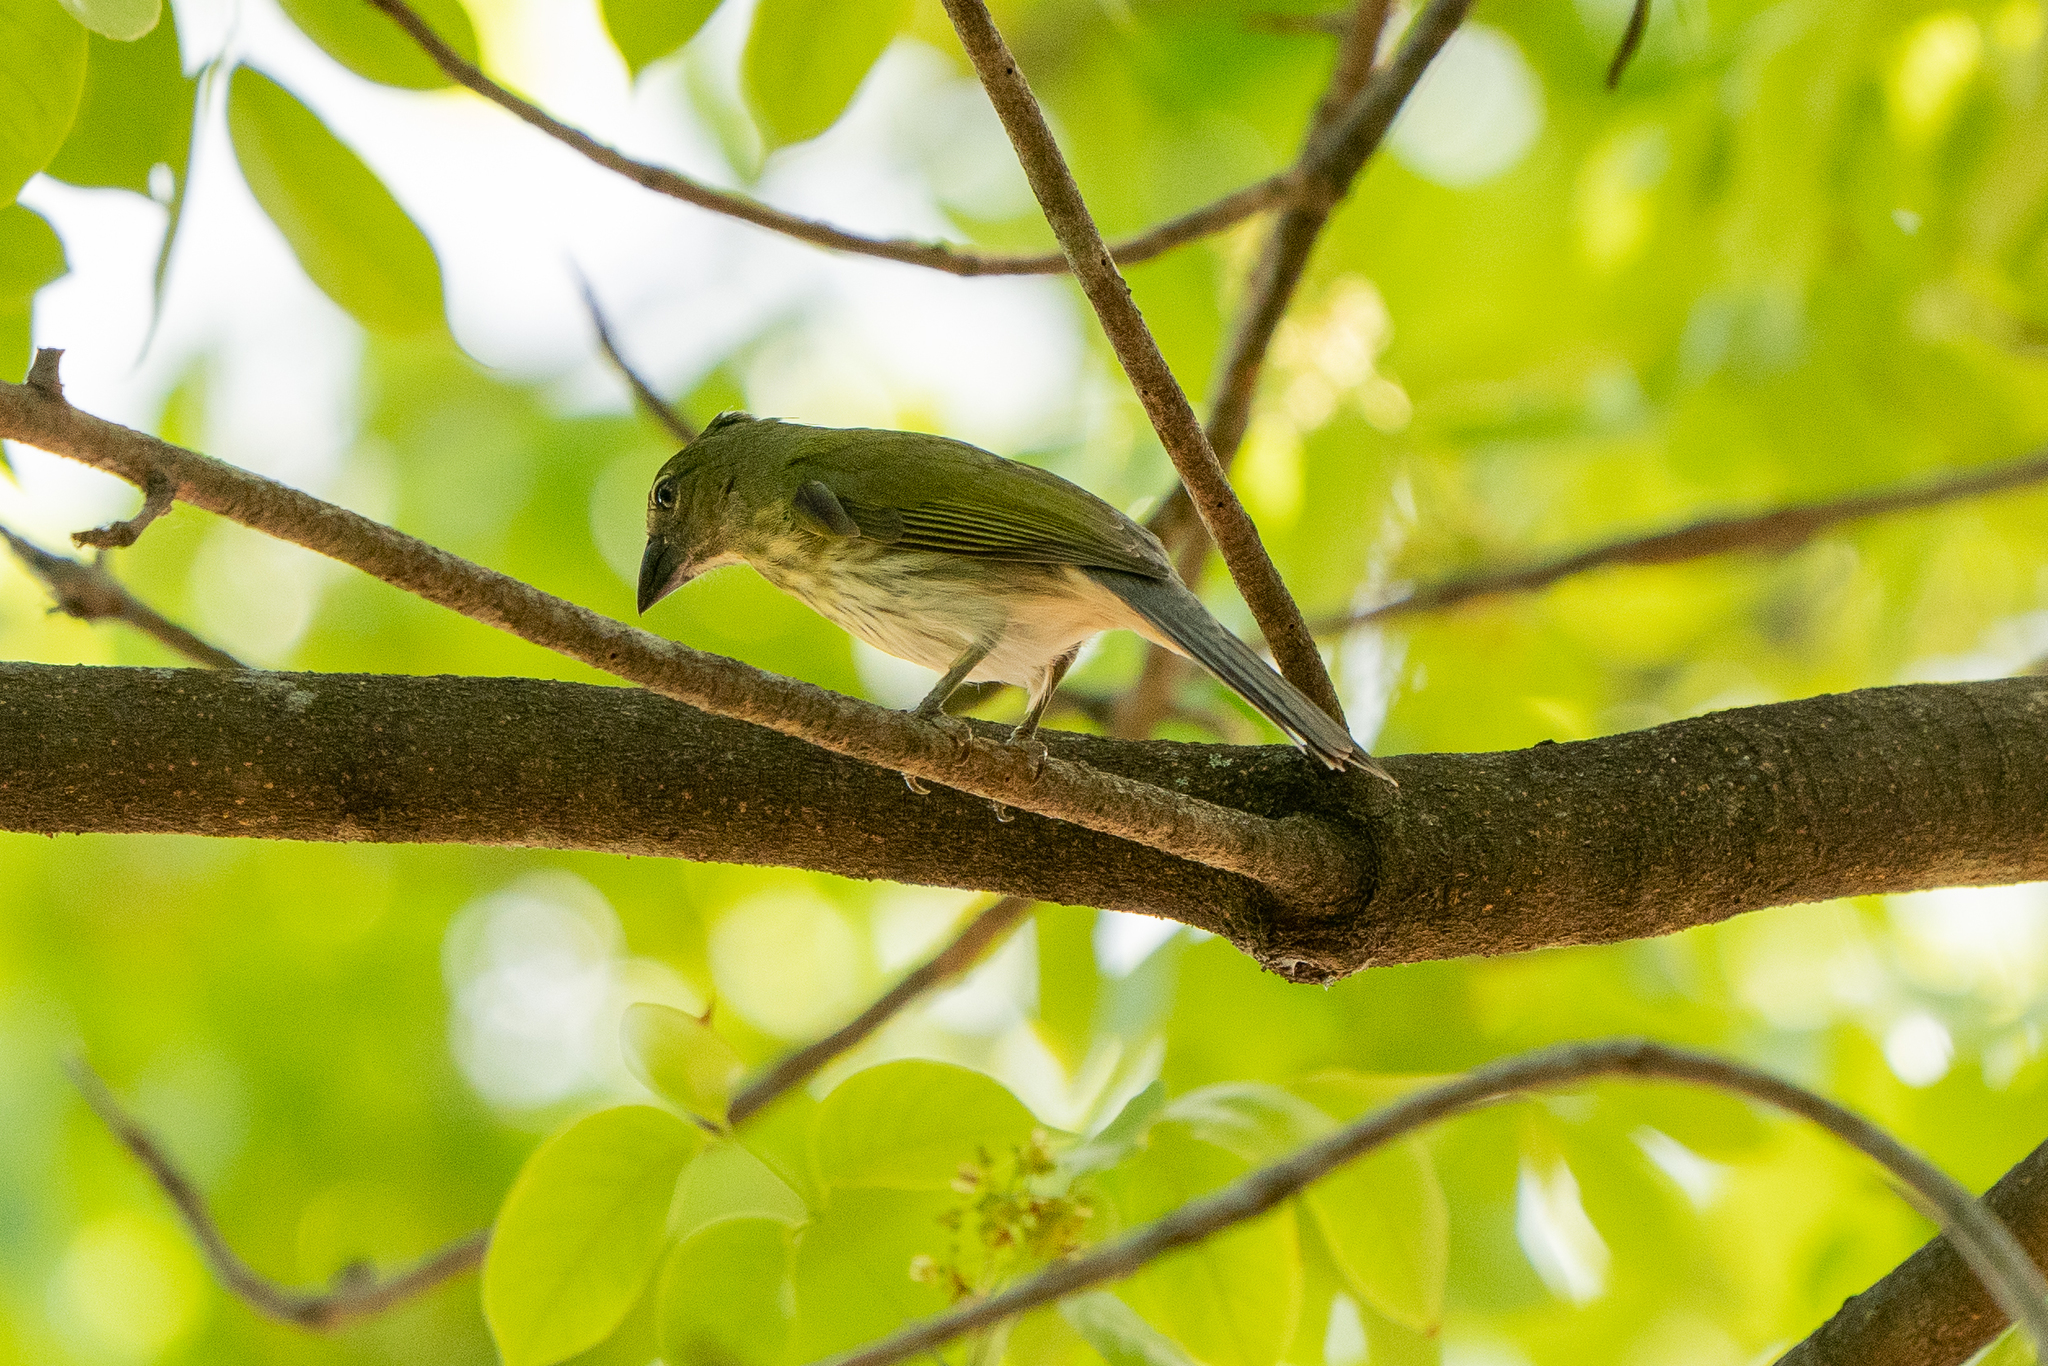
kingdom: Animalia
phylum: Chordata
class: Aves
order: Passeriformes
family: Thraupidae
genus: Saltator
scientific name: Saltator striatipectus
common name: Streaked saltator
